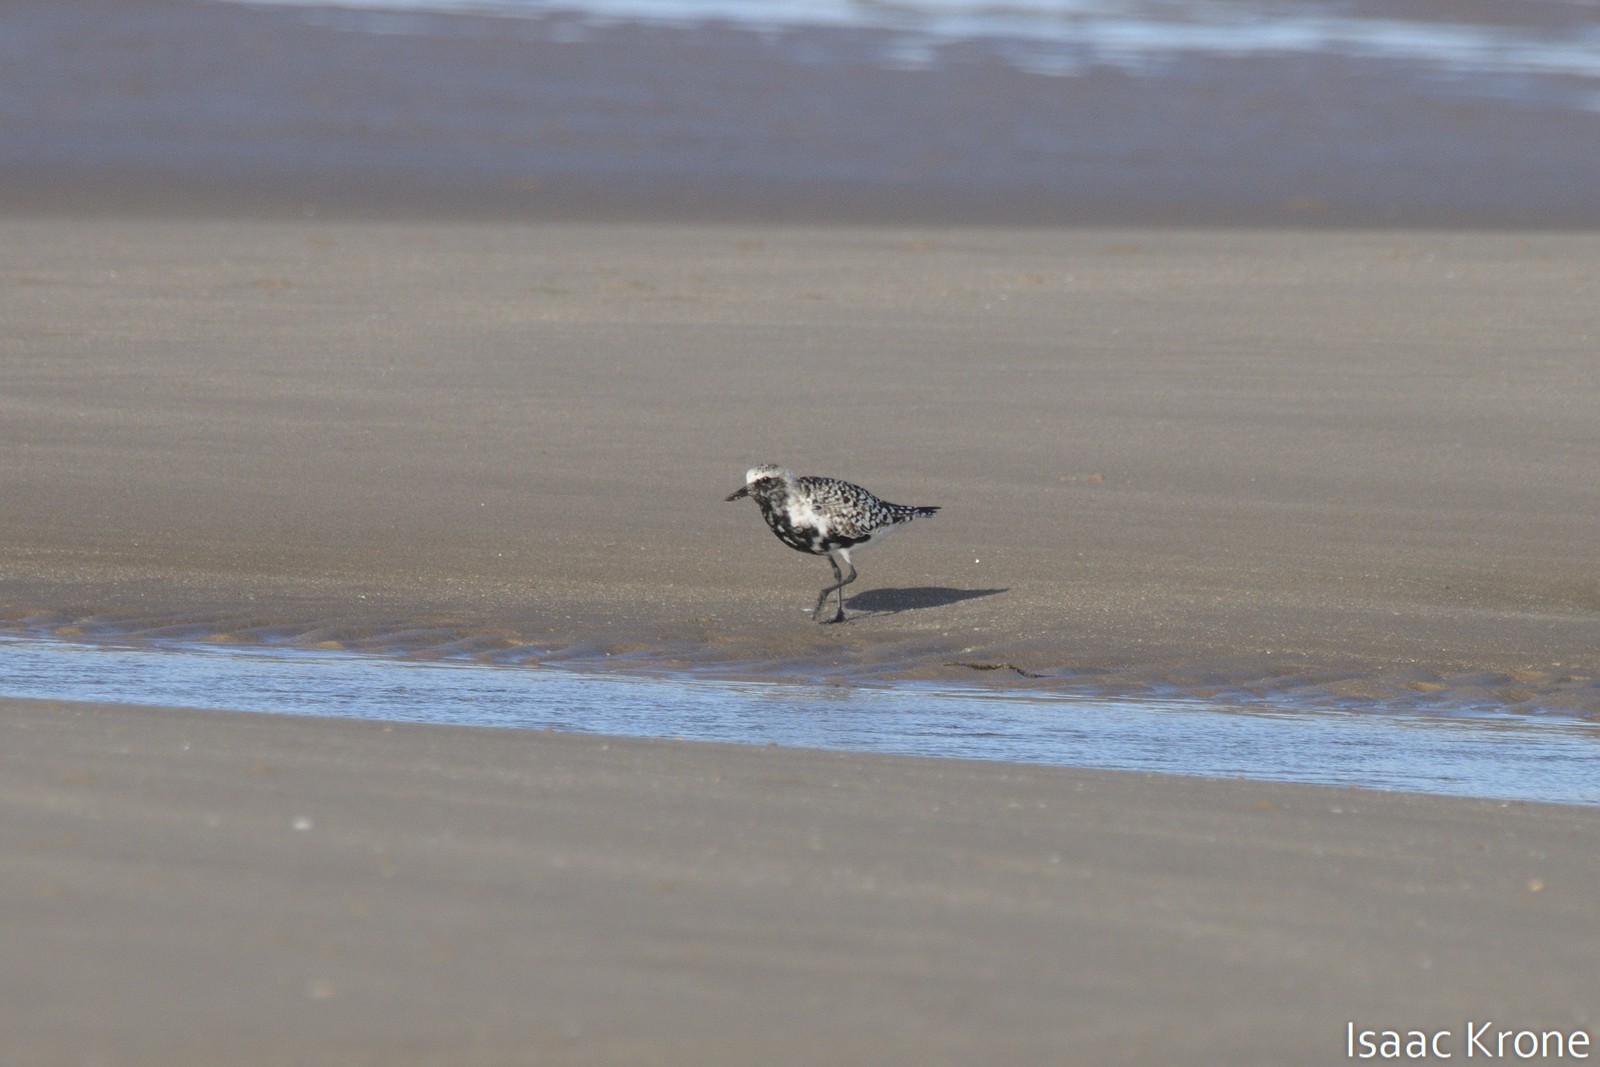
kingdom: Animalia
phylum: Chordata
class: Aves
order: Charadriiformes
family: Charadriidae
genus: Pluvialis
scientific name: Pluvialis squatarola
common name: Grey plover
